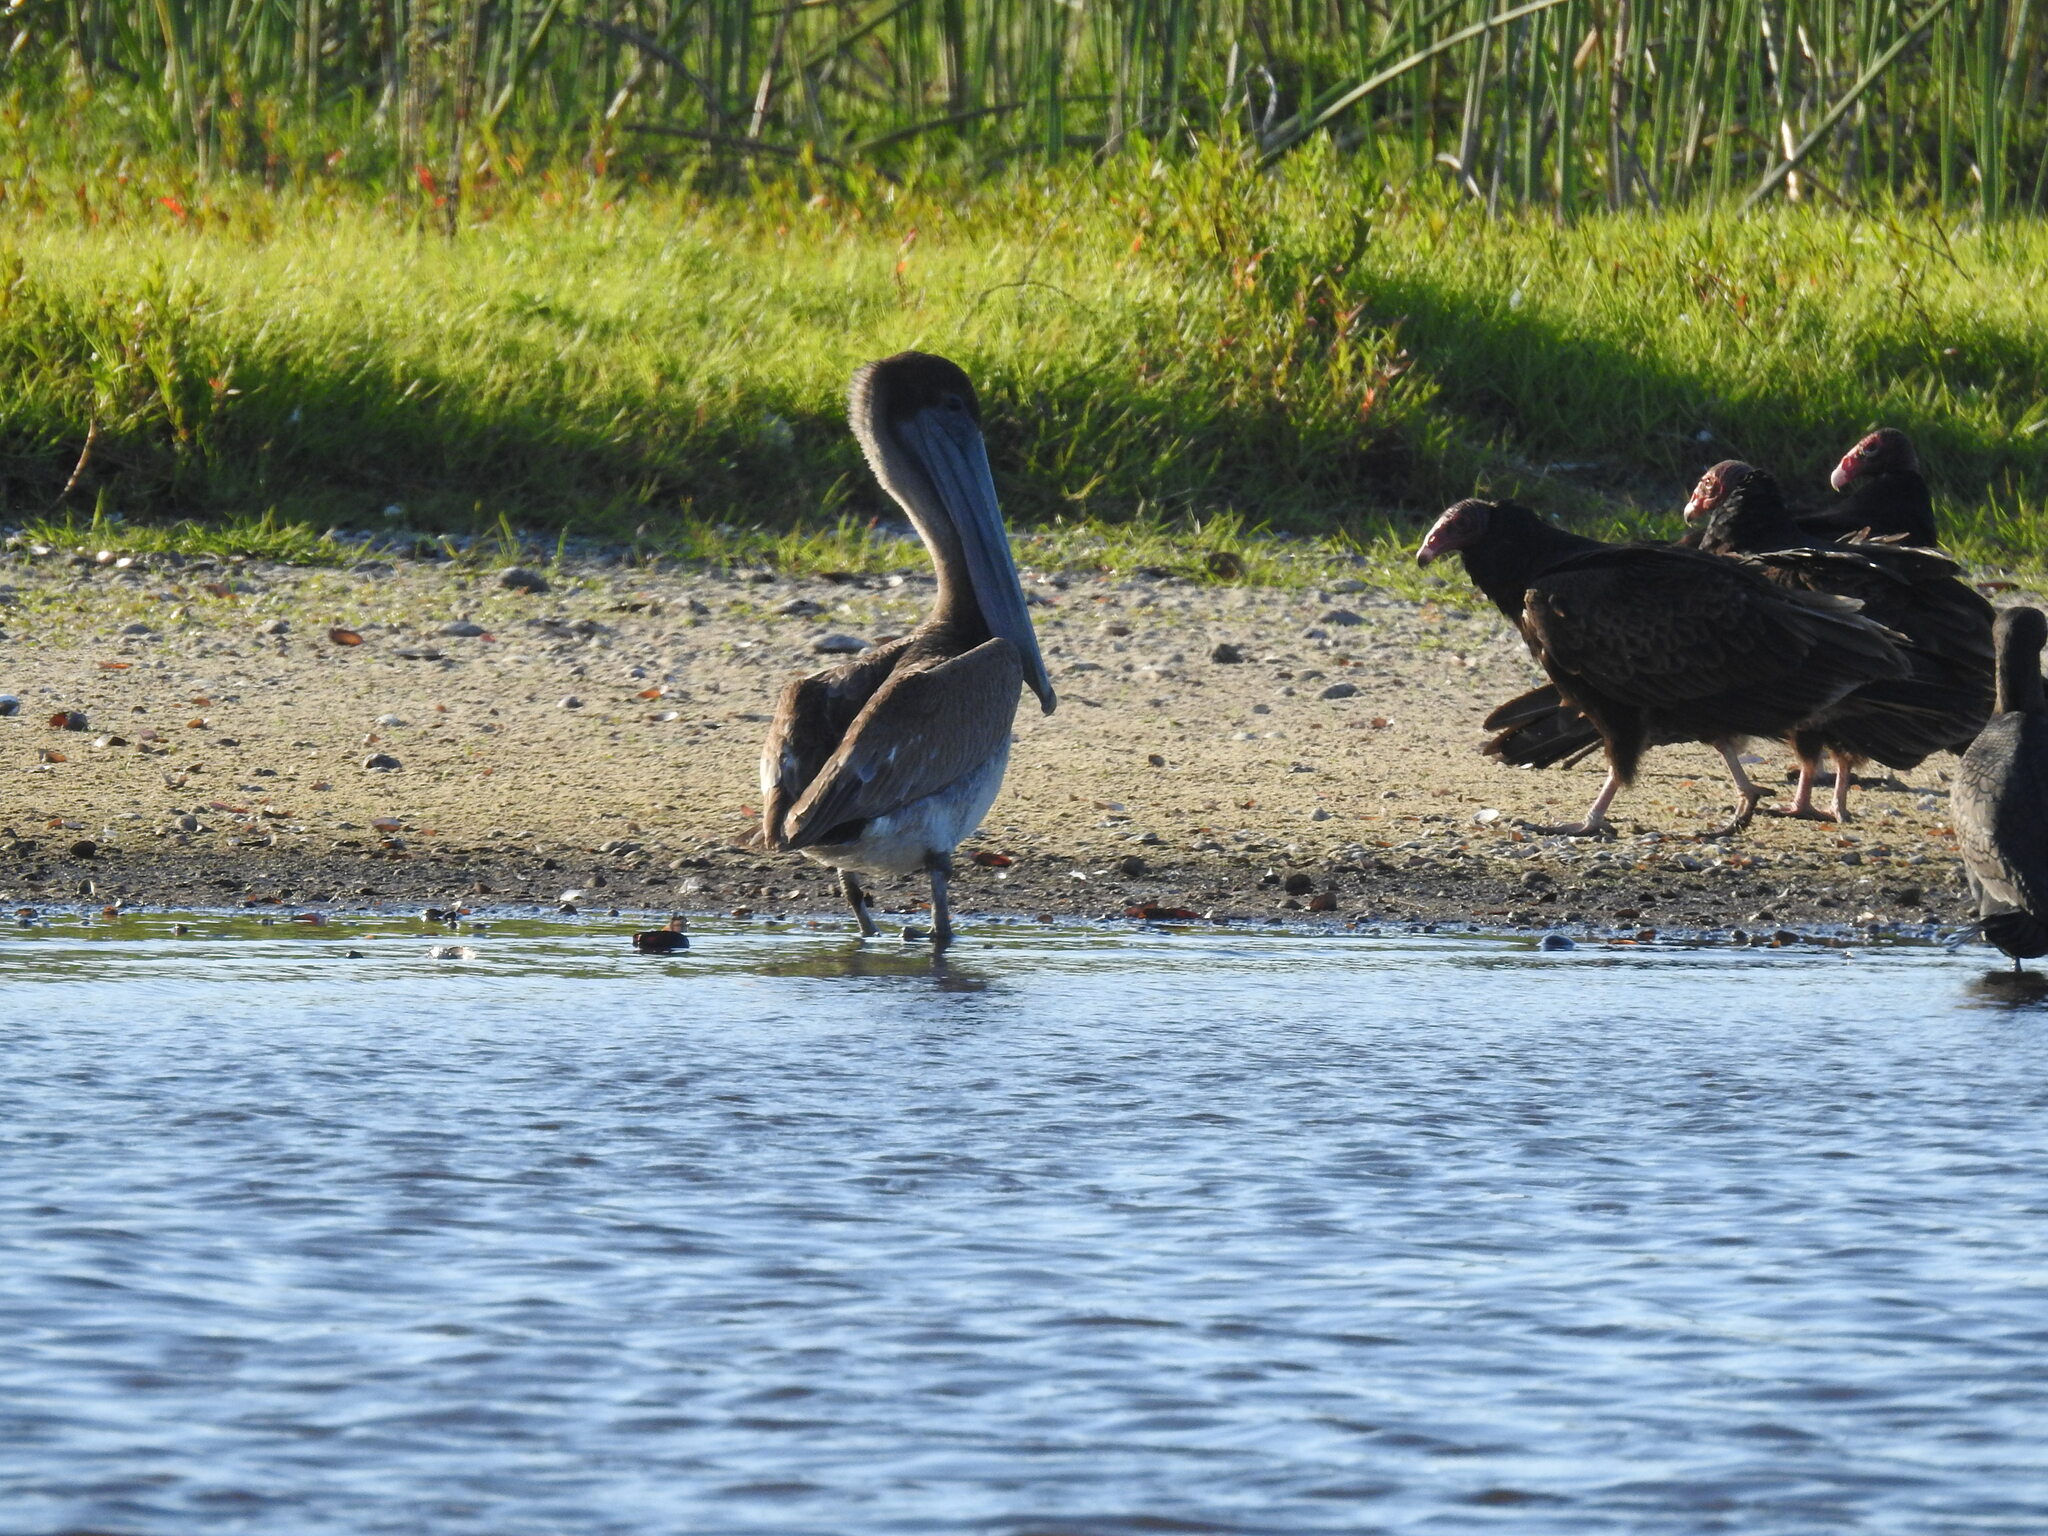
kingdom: Animalia
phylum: Chordata
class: Aves
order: Pelecaniformes
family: Pelecanidae
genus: Pelecanus
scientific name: Pelecanus occidentalis
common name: Brown pelican
